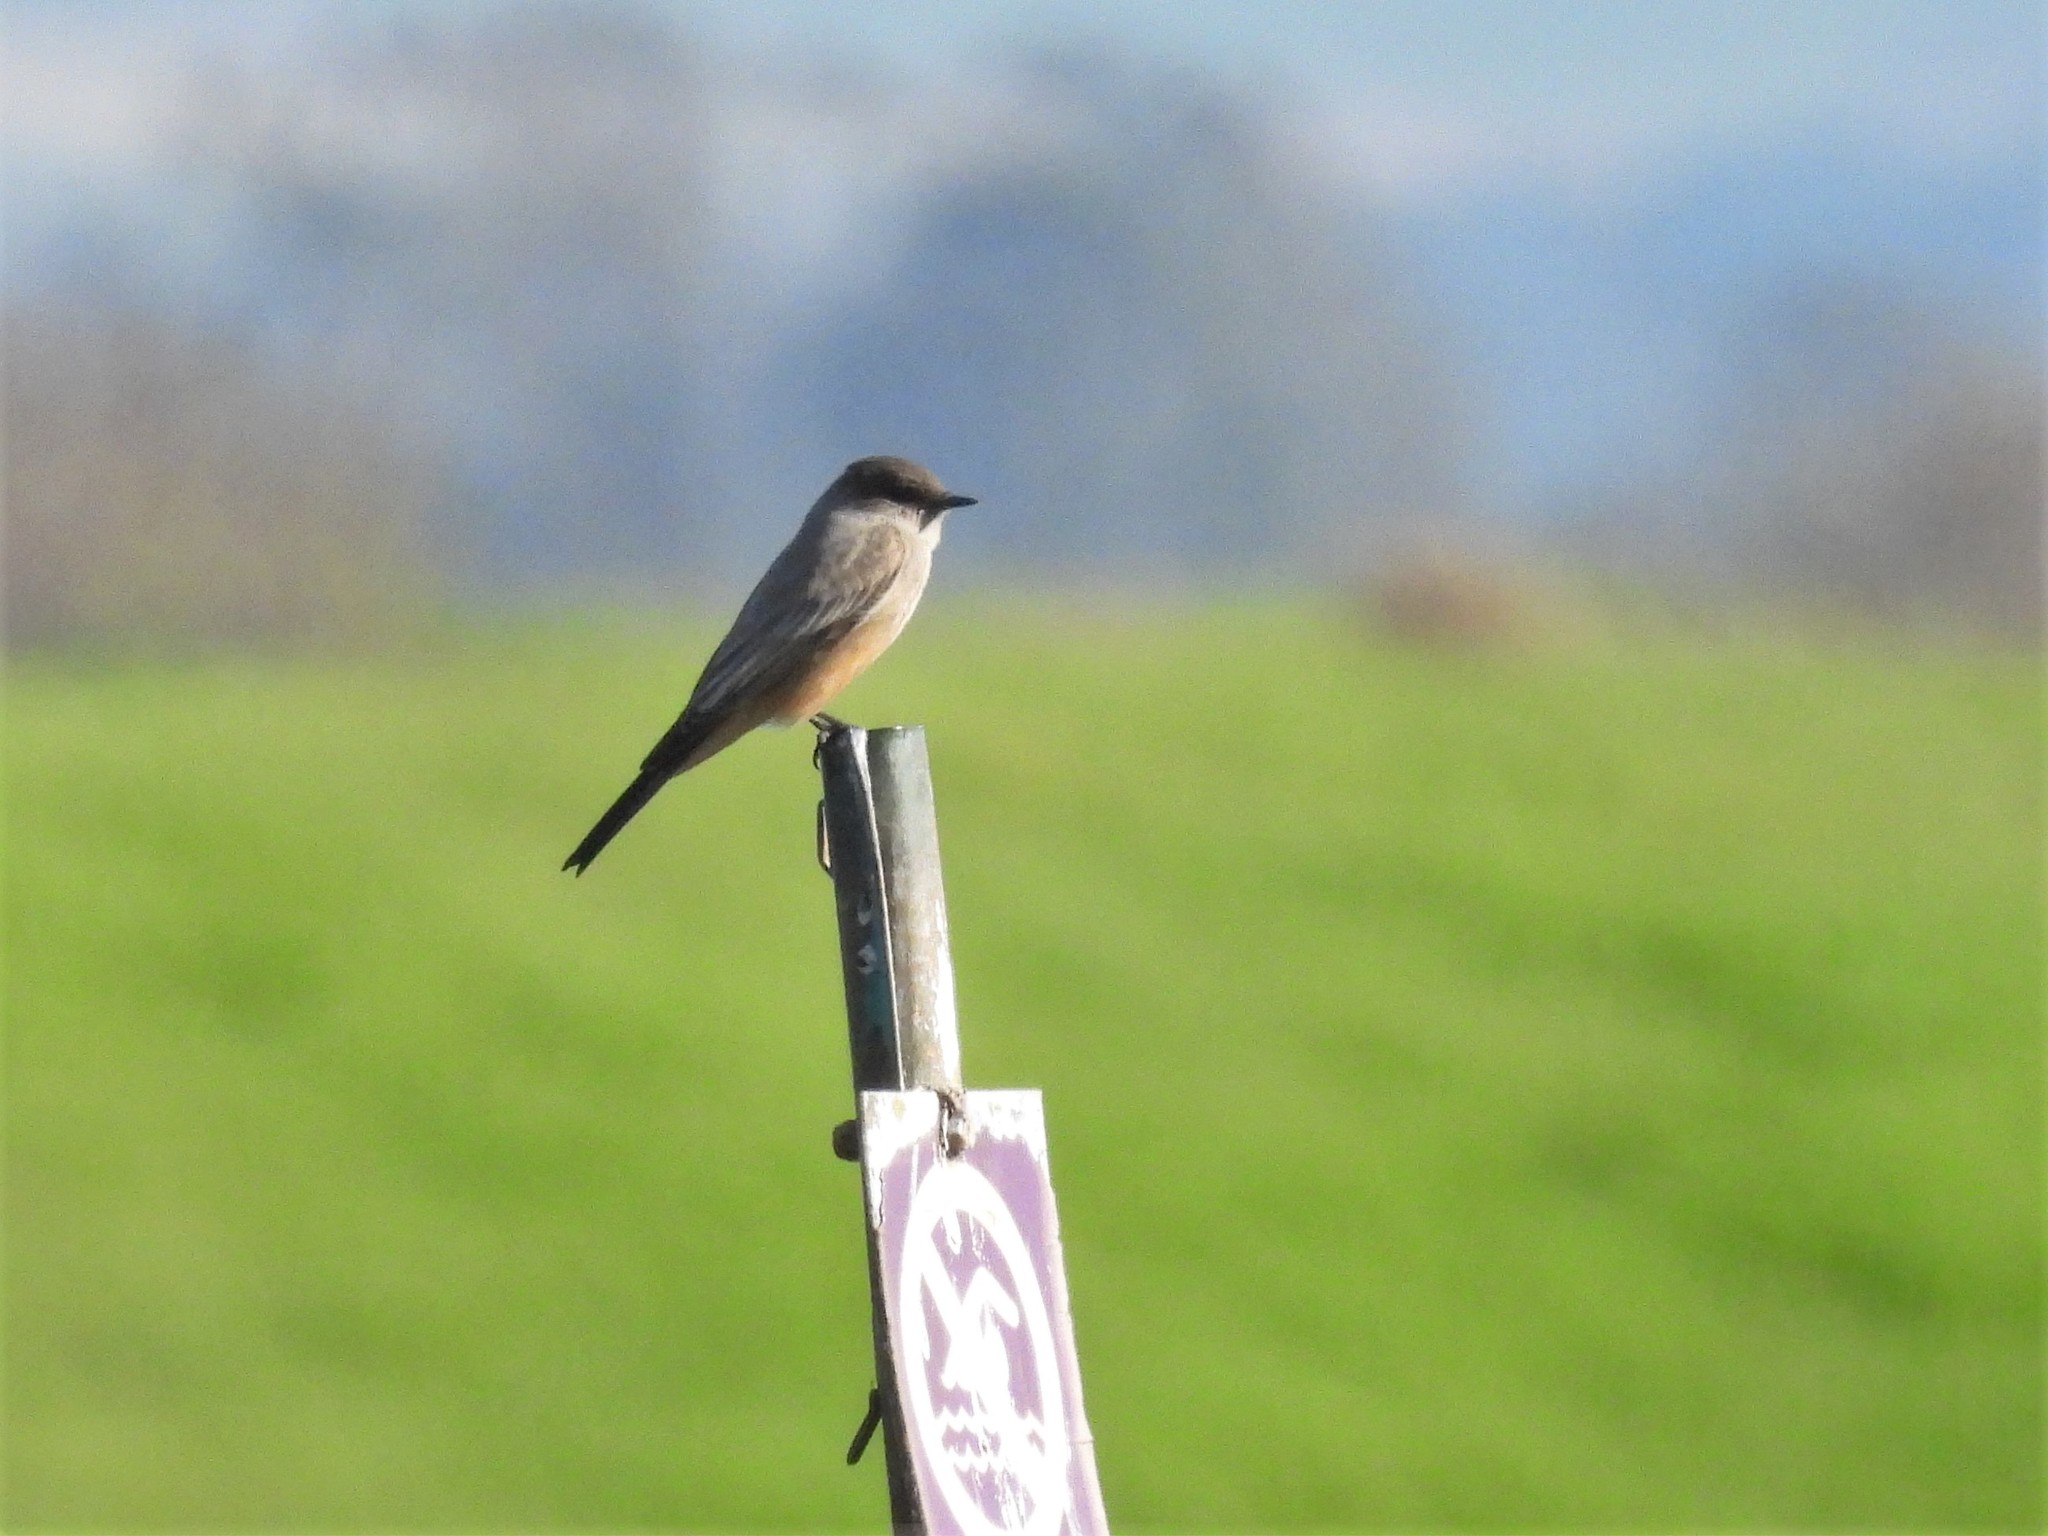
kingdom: Animalia
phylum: Chordata
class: Aves
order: Passeriformes
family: Tyrannidae
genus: Sayornis
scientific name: Sayornis saya
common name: Say's phoebe
